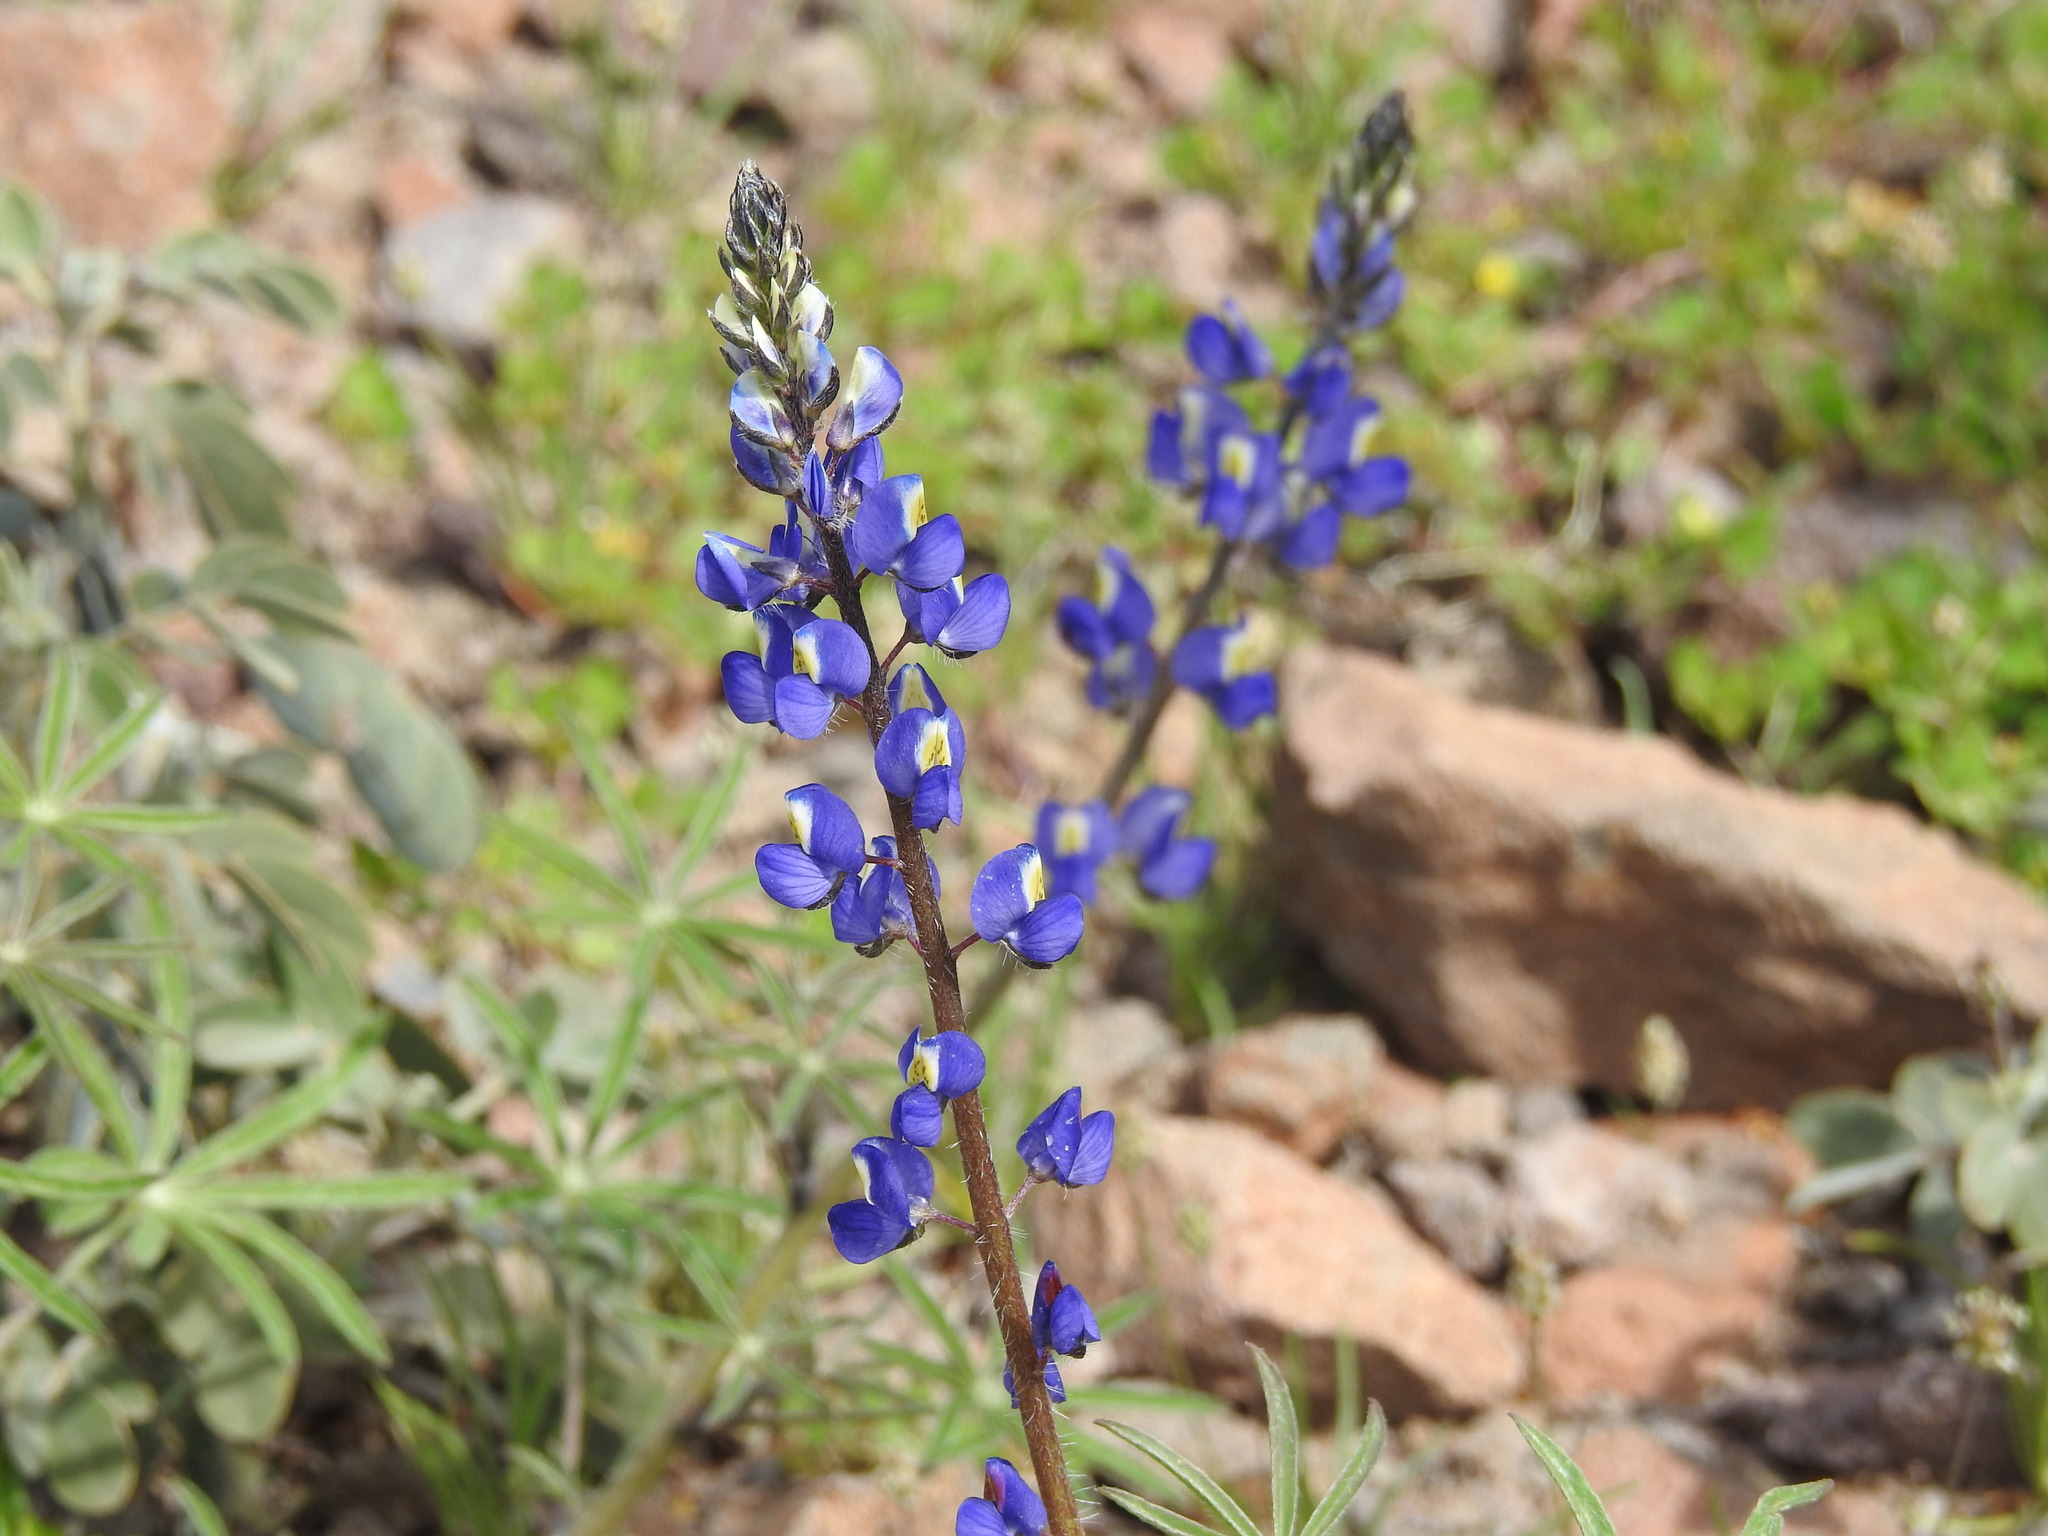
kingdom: Plantae
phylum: Tracheophyta
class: Magnoliopsida
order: Fabales
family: Fabaceae
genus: Lupinus
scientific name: Lupinus sparsiflorus
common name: Coulter's lupine
